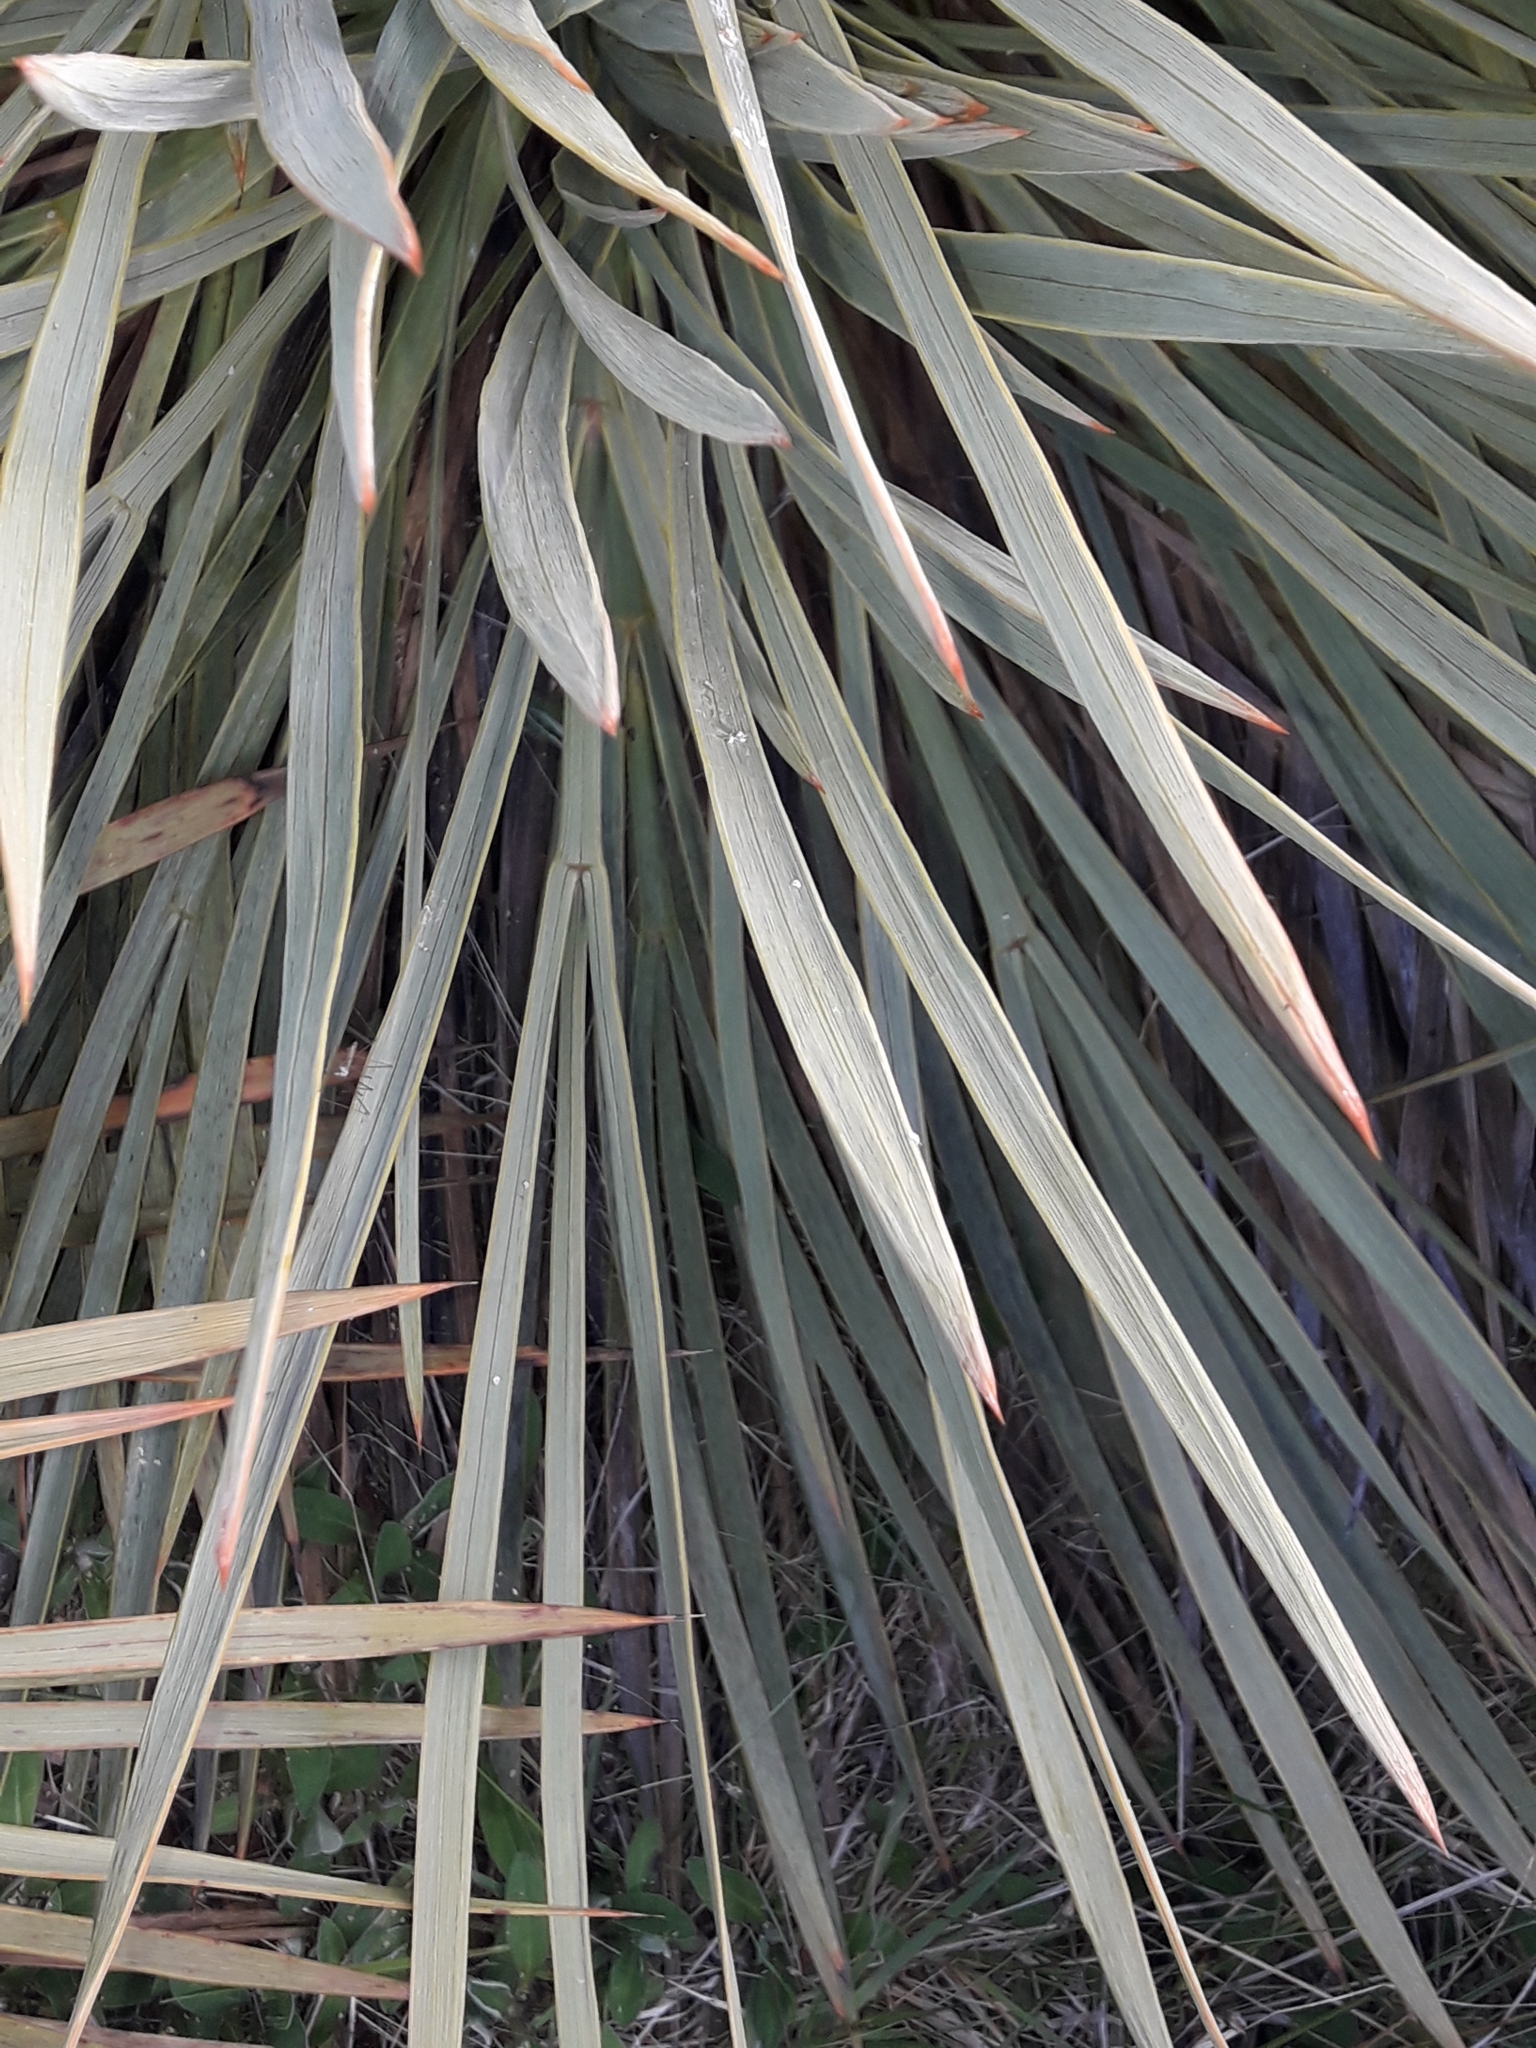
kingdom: Plantae
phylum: Tracheophyta
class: Magnoliopsida
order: Apiales
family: Apiaceae
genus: Aciphylla
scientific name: Aciphylla aurea
